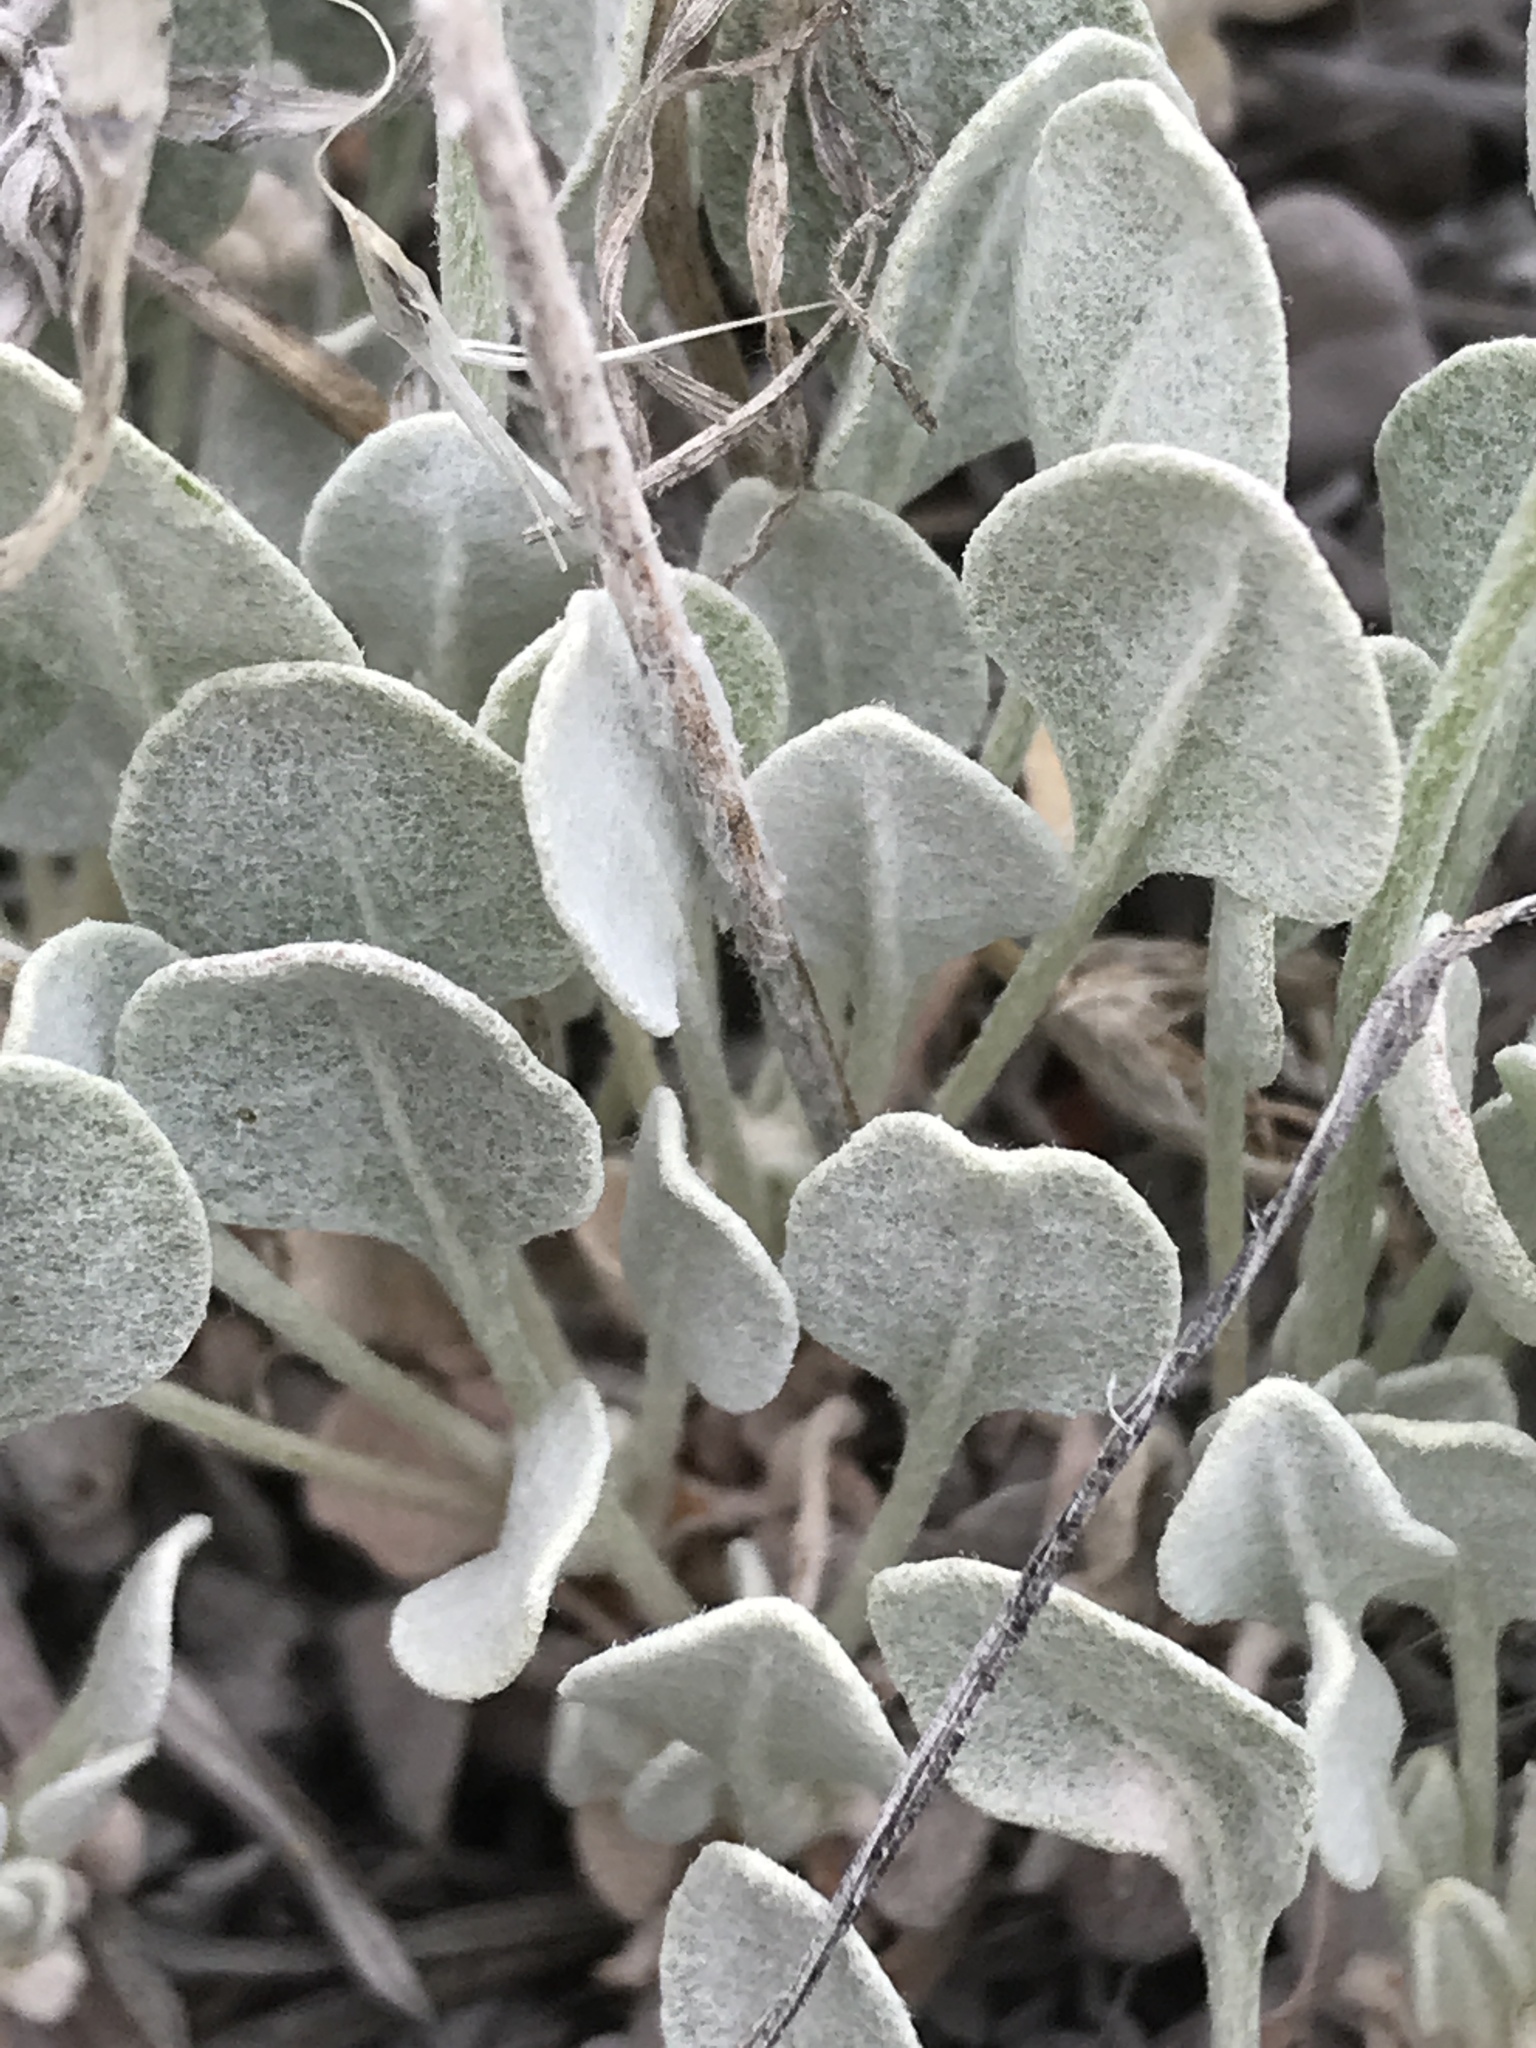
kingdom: Plantae
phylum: Tracheophyta
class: Magnoliopsida
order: Caryophyllales
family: Polygonaceae
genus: Eriogonum
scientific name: Eriogonum ovalifolium
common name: Cushion buckwheat
